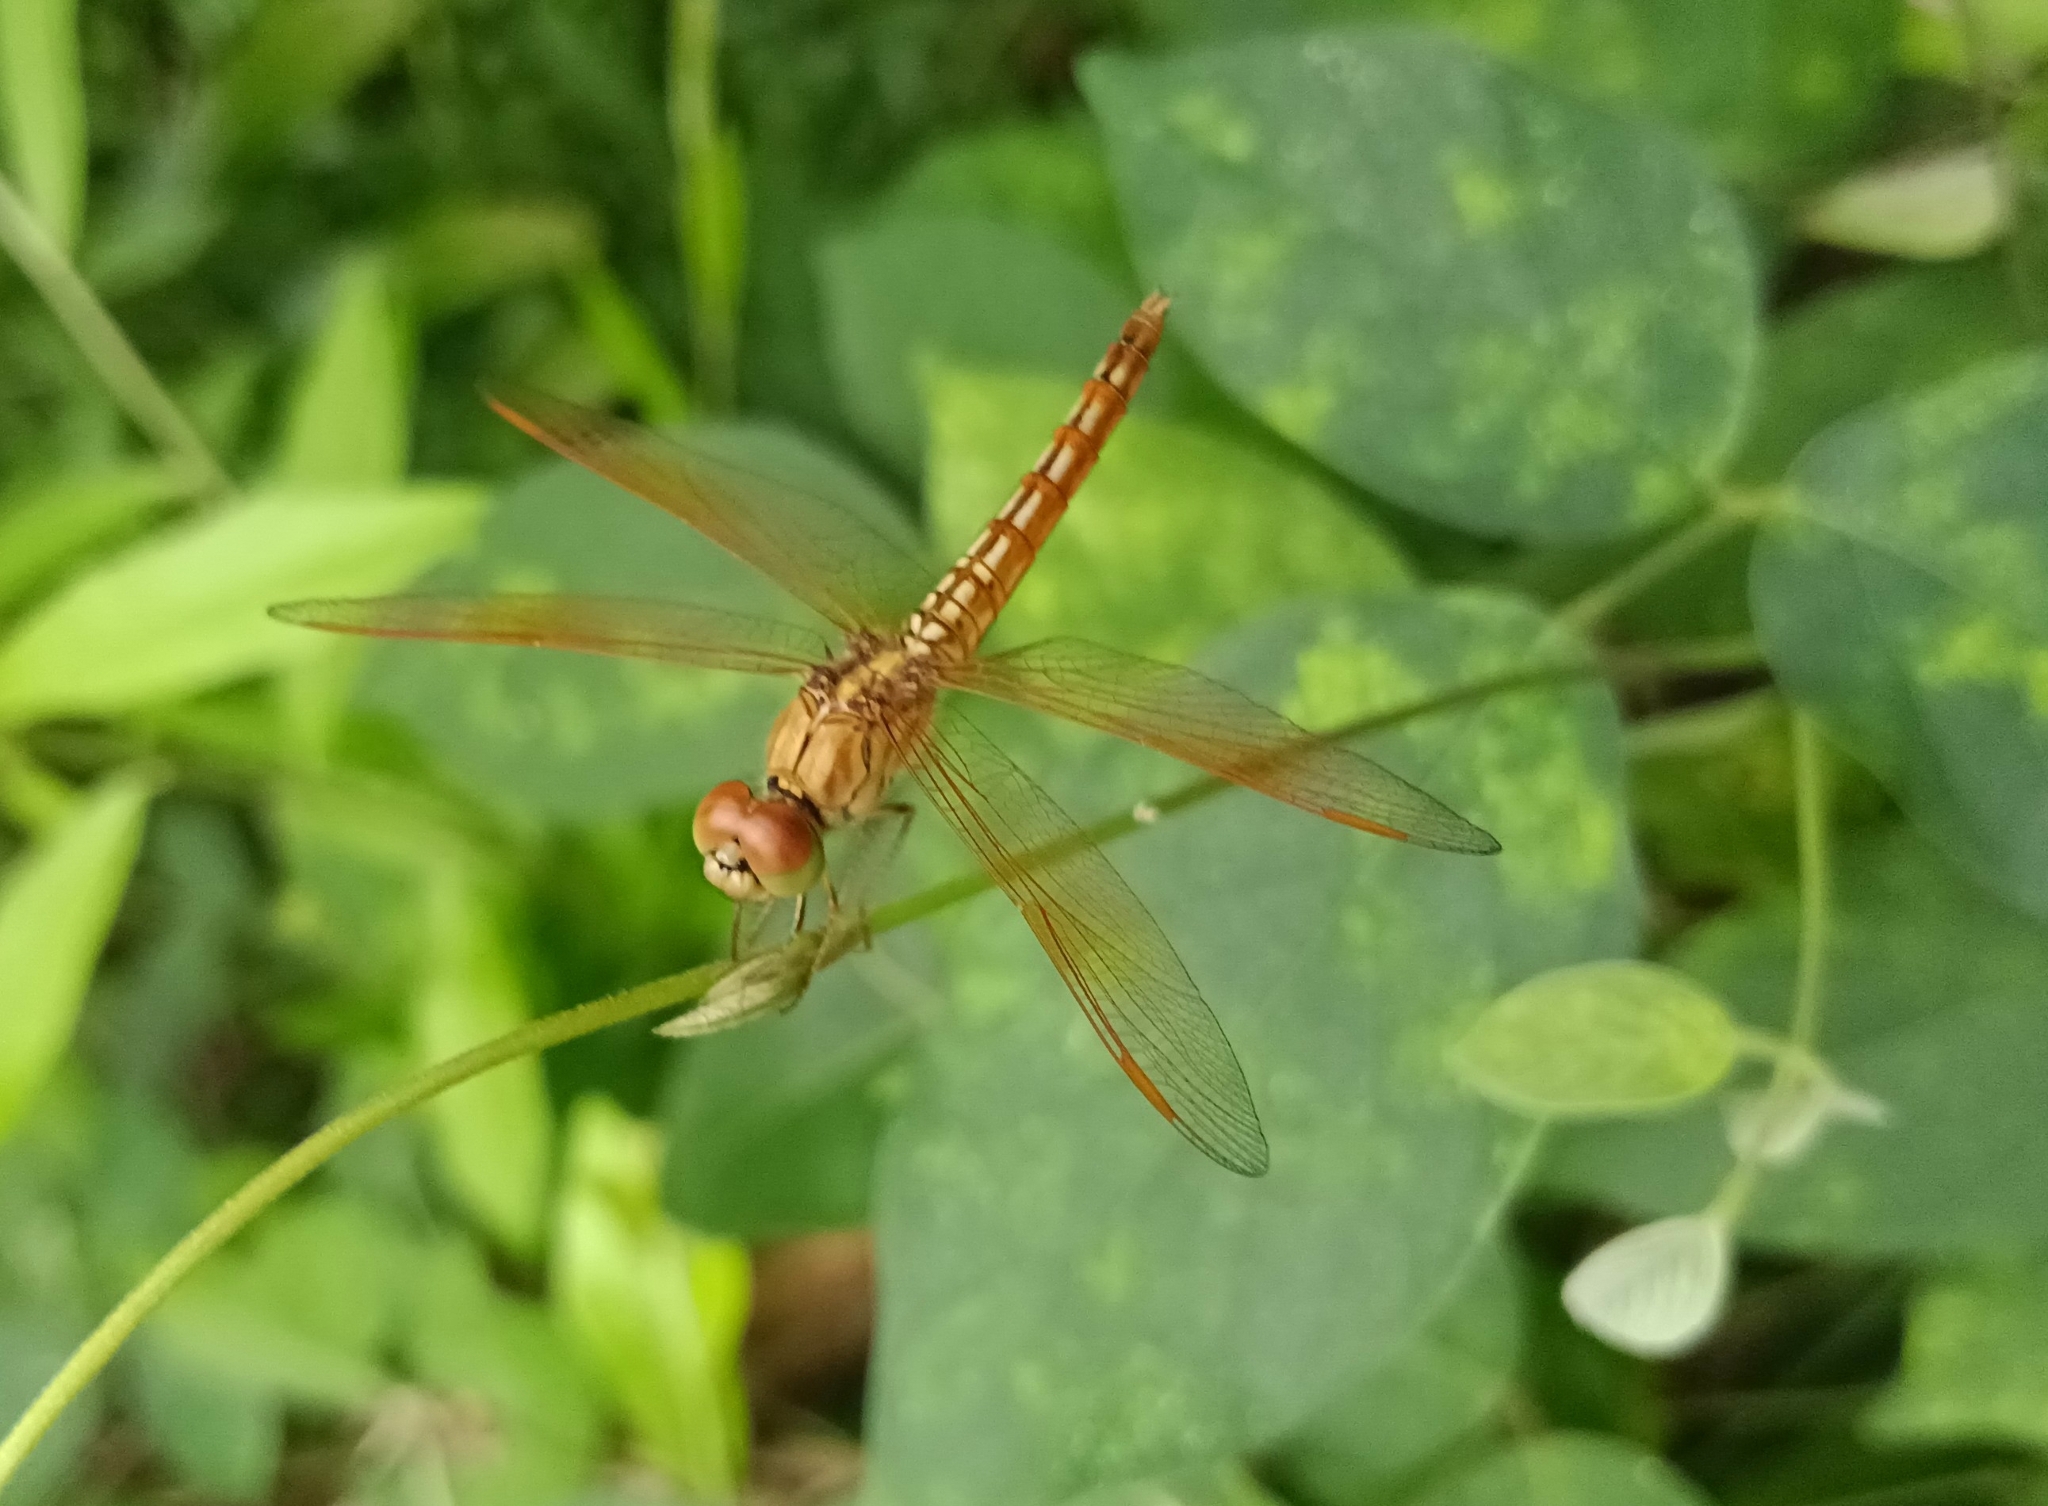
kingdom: Animalia
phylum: Arthropoda
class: Insecta
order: Odonata
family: Libellulidae
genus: Brachythemis
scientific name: Brachythemis contaminata
